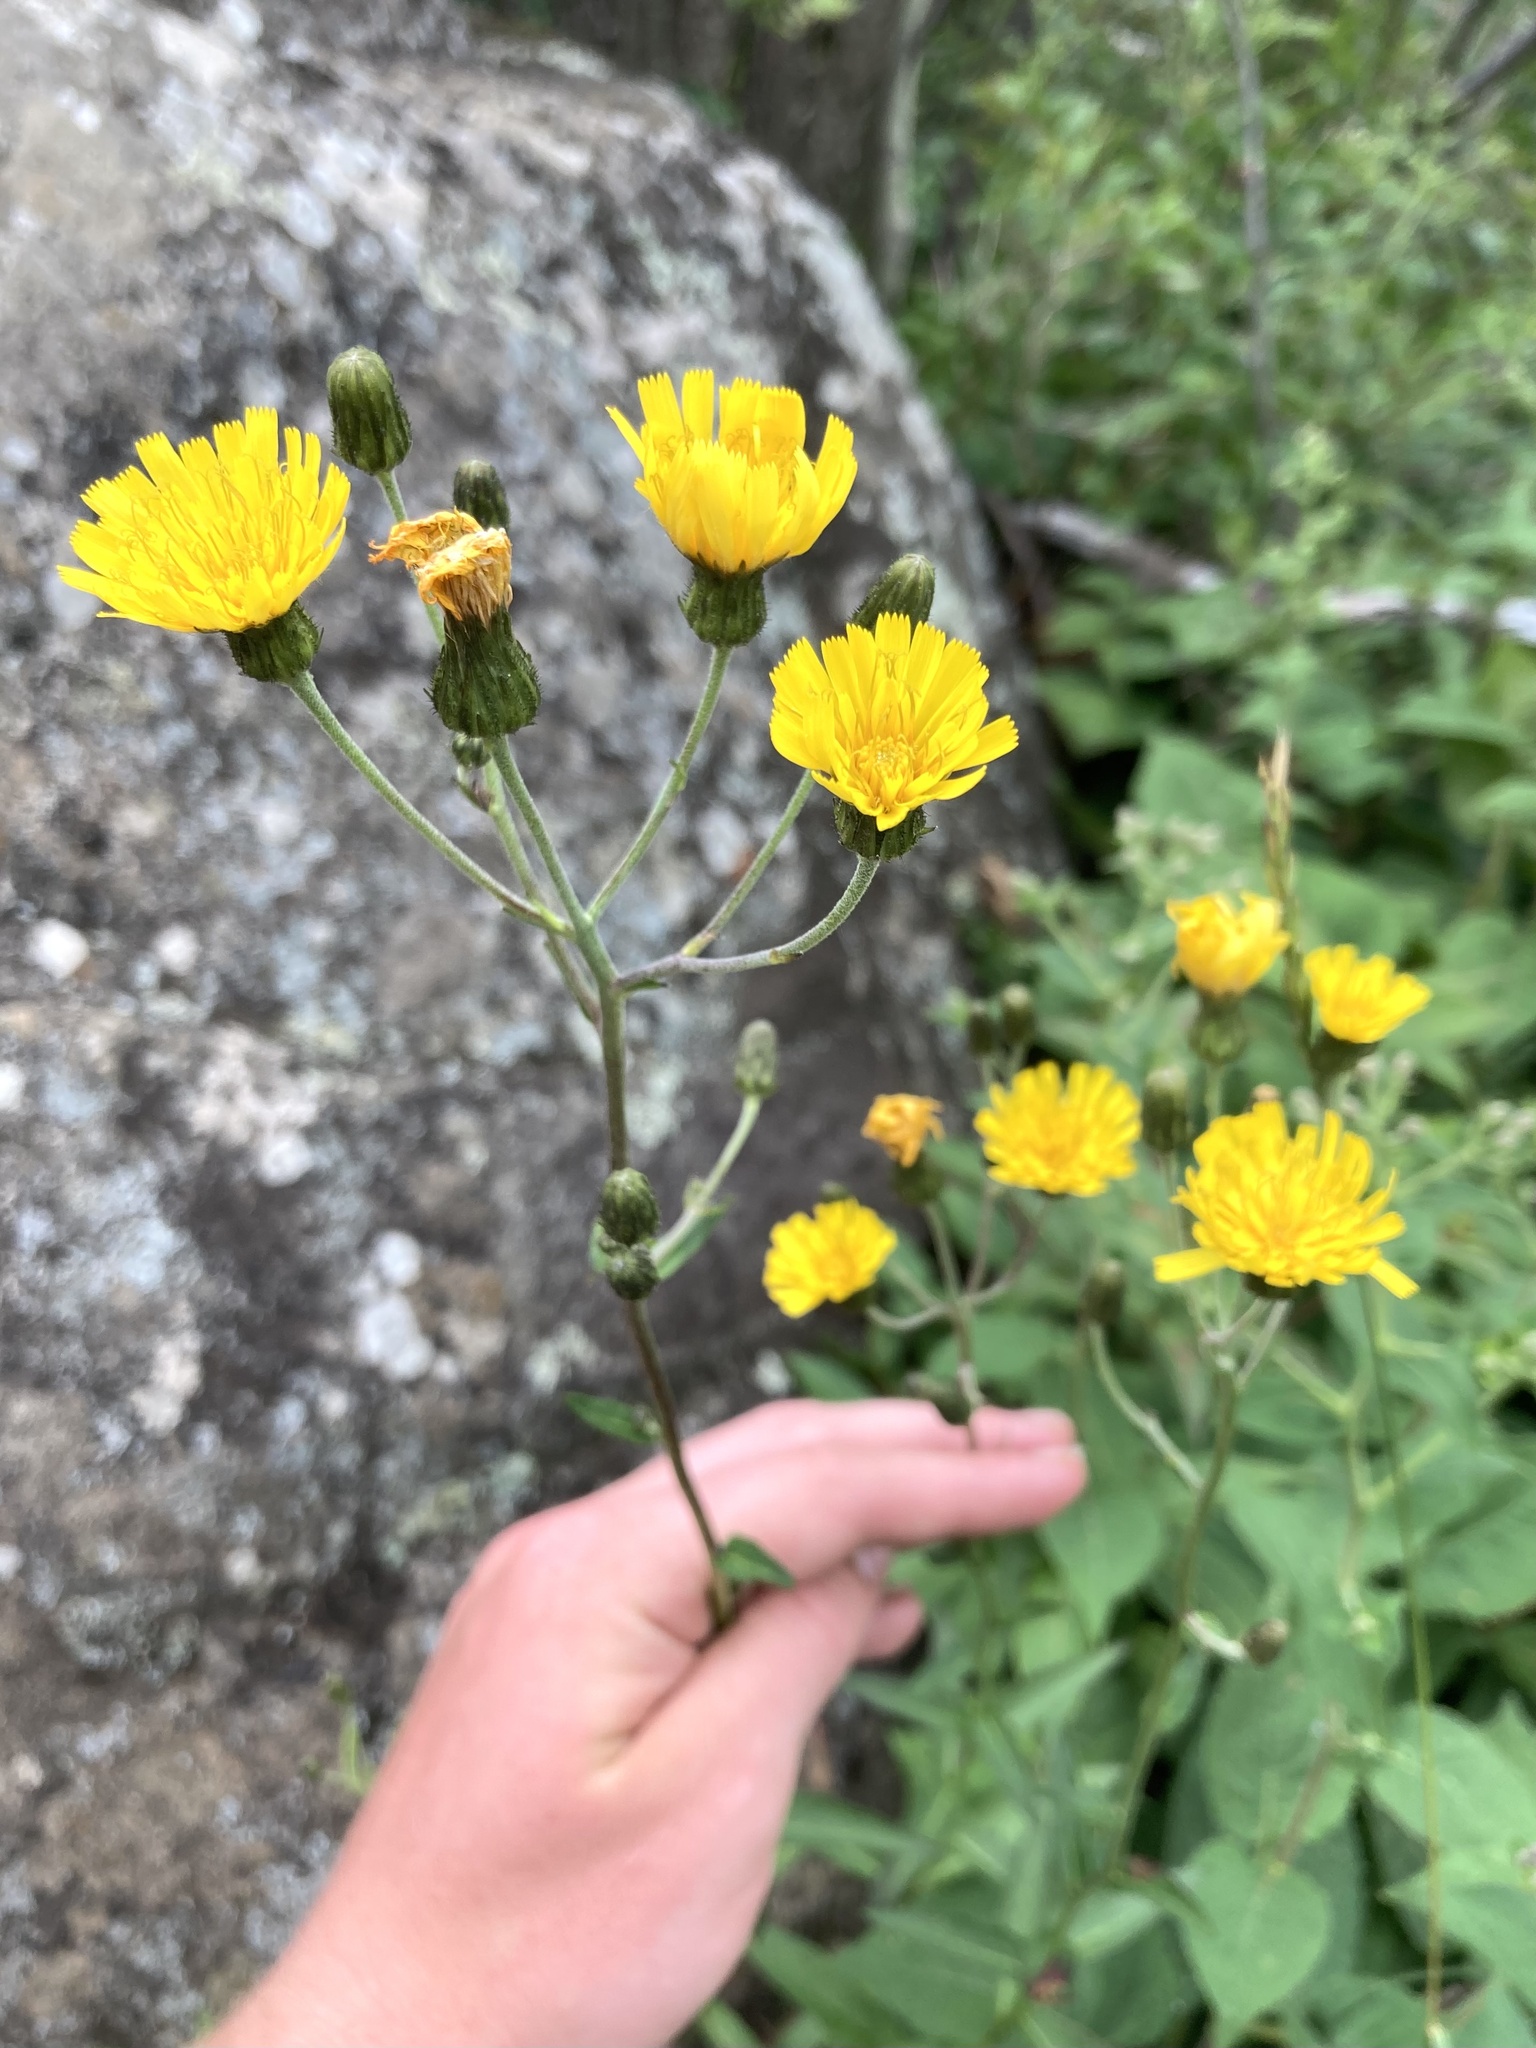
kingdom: Plantae
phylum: Tracheophyta
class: Magnoliopsida
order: Asterales
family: Asteraceae
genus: Hieracium
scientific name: Hieracium umbellatum
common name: Northern hawkweed
